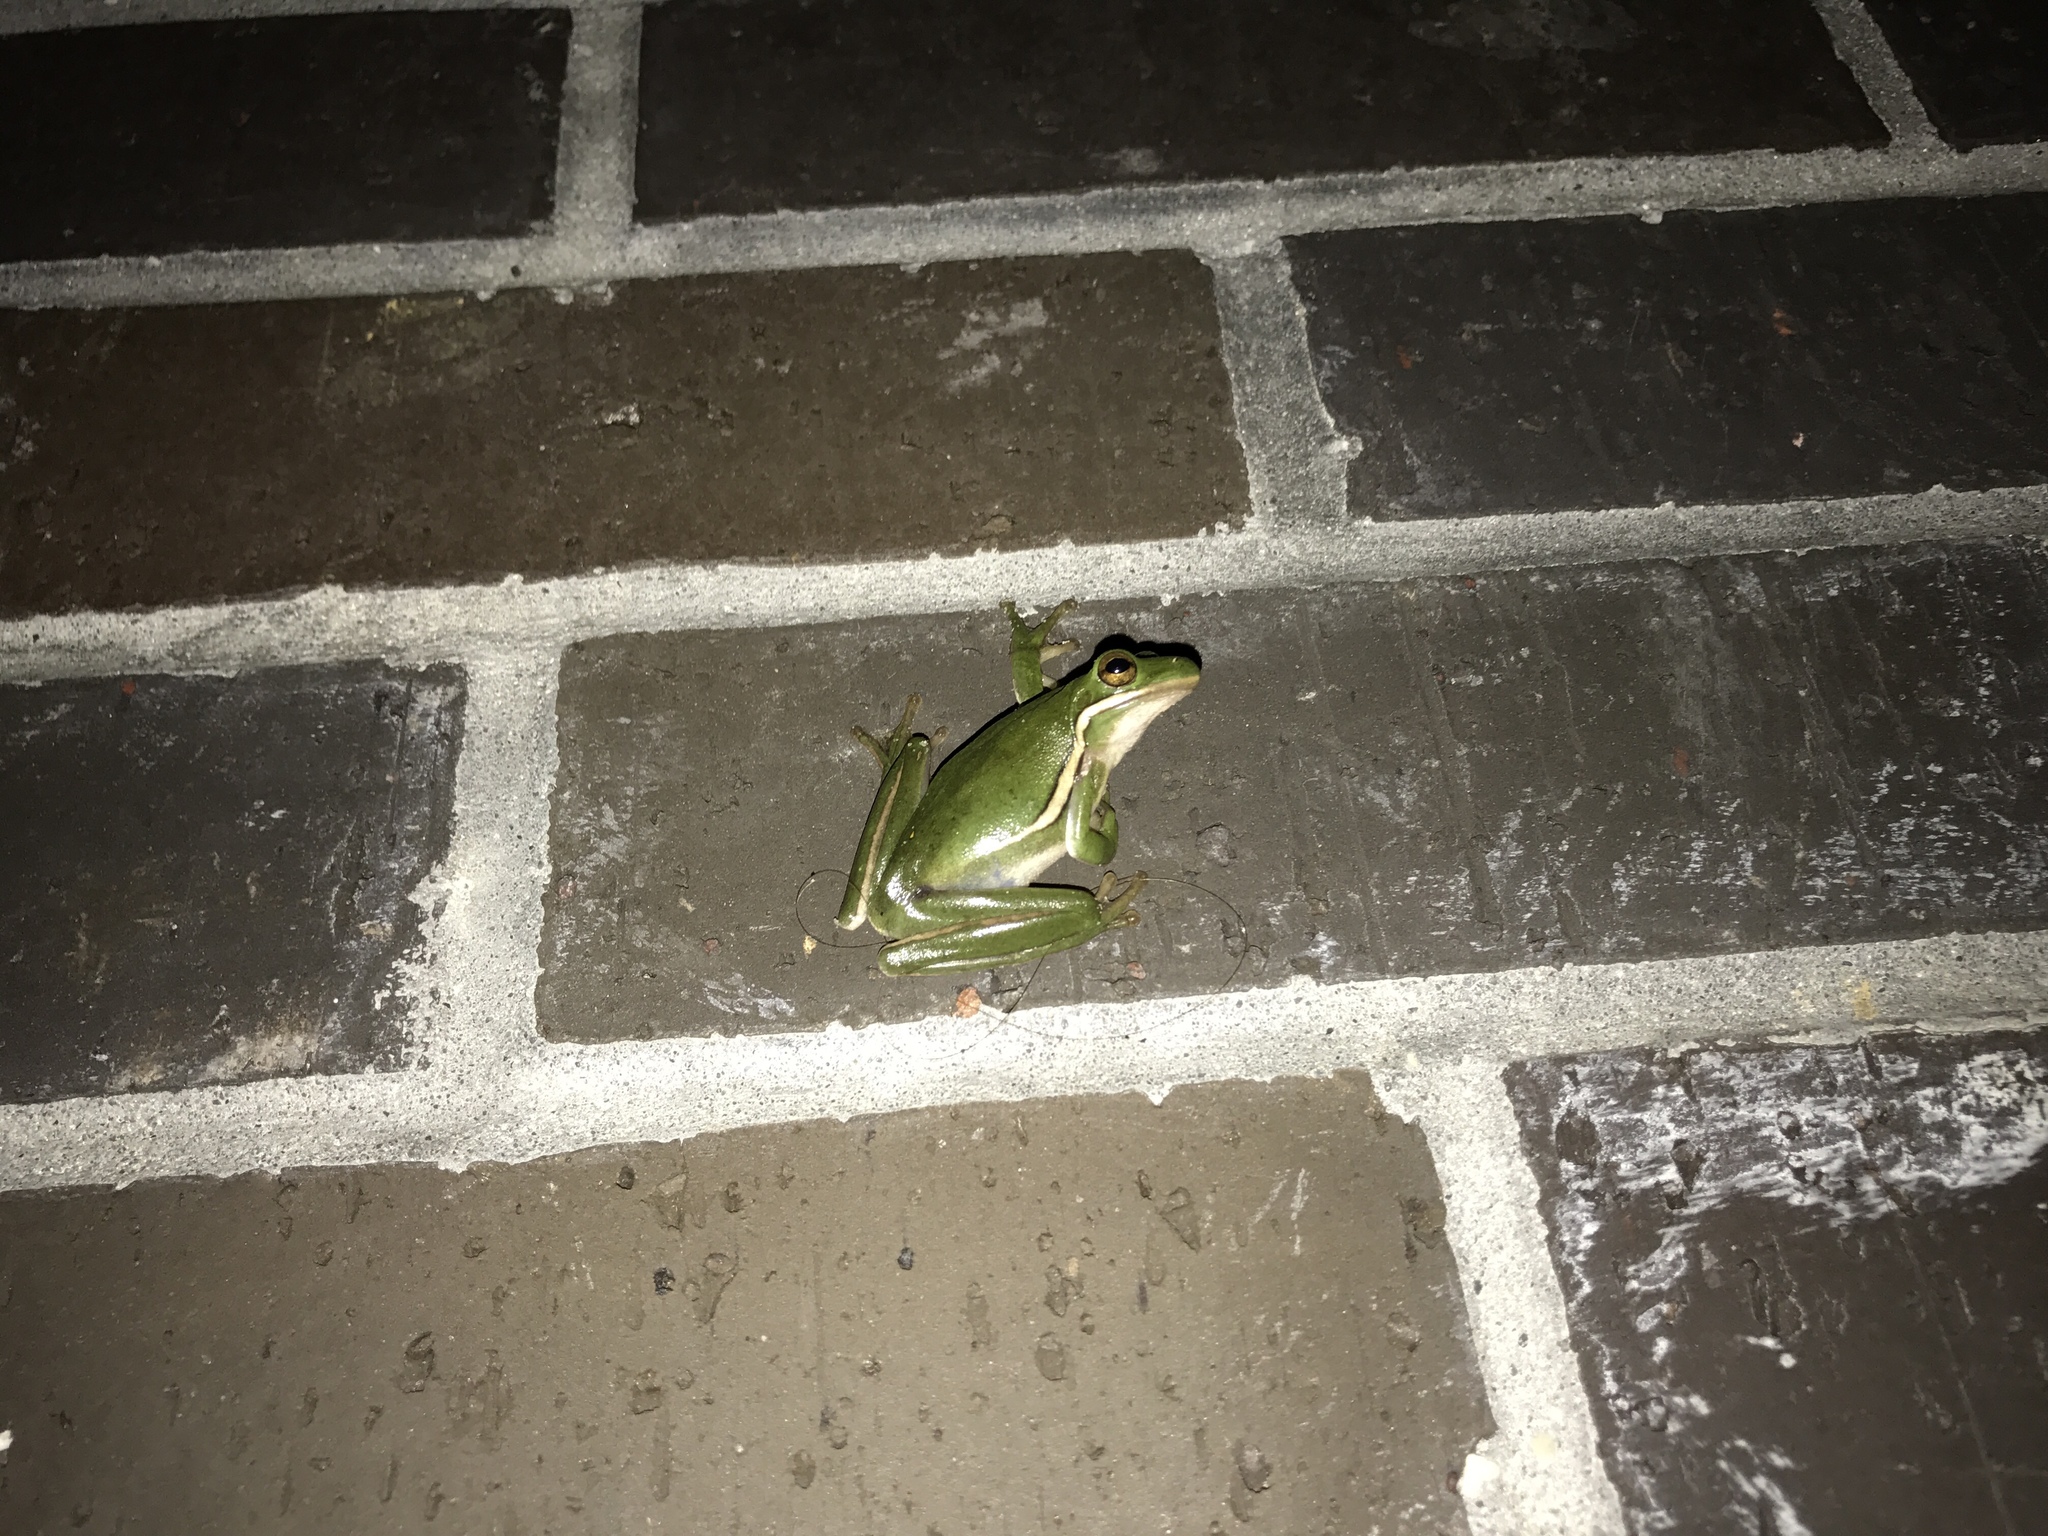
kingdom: Animalia
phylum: Chordata
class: Amphibia
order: Anura
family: Hylidae
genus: Dryophytes
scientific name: Dryophytes cinereus
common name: Green treefrog
